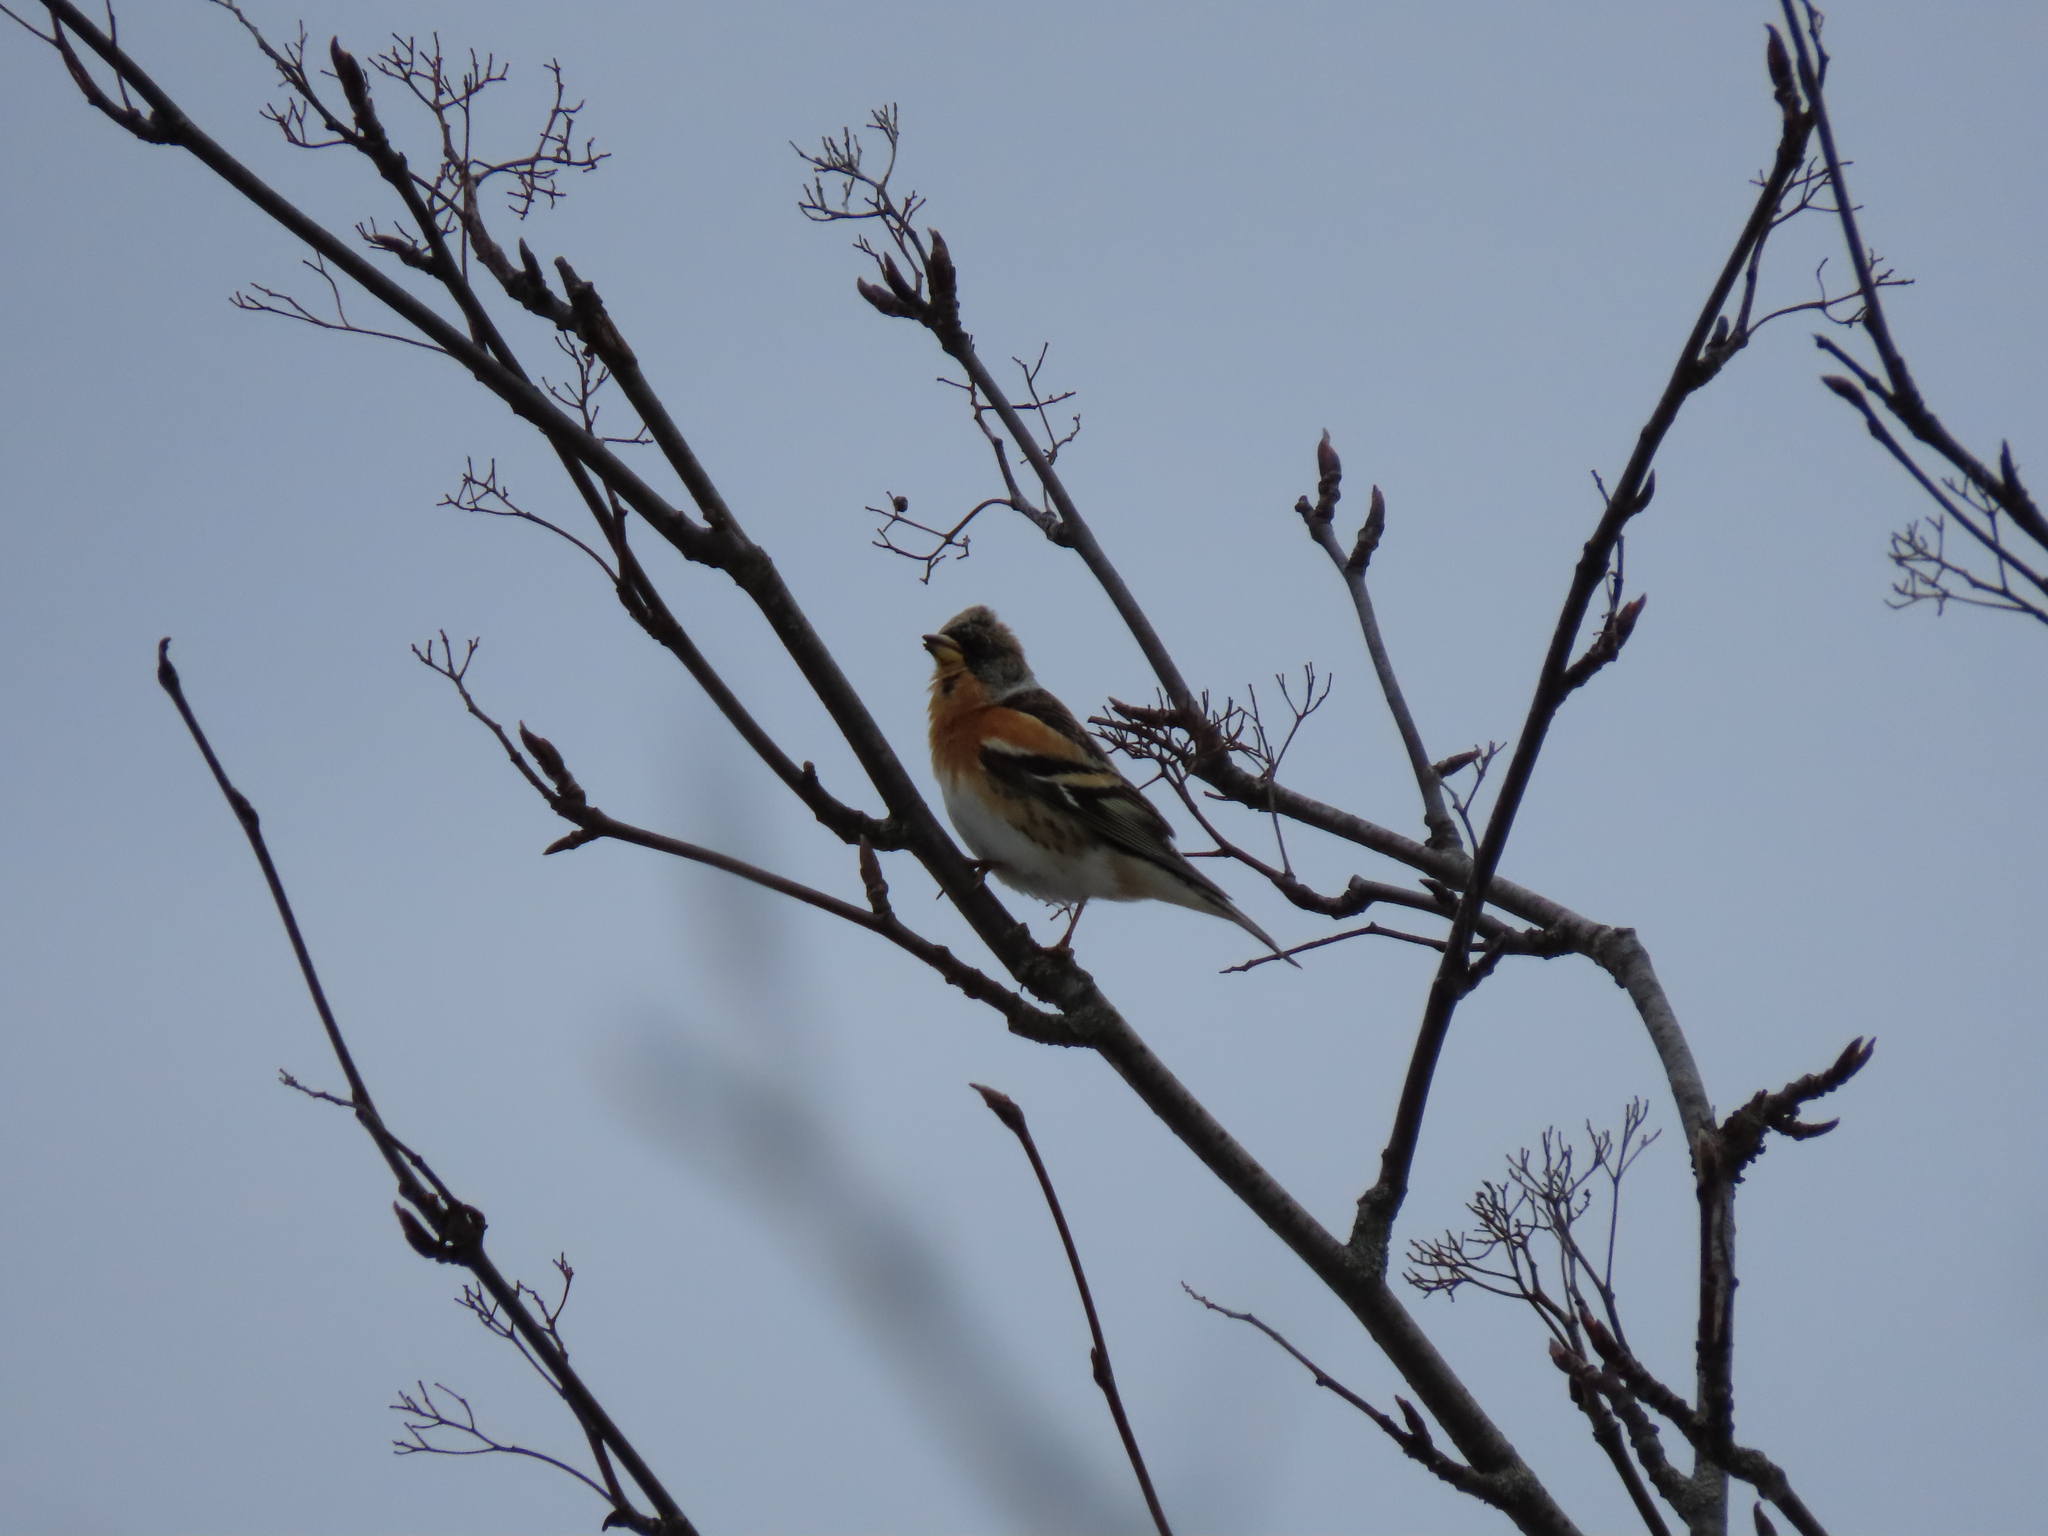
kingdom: Animalia
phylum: Chordata
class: Aves
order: Passeriformes
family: Fringillidae
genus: Fringilla
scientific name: Fringilla montifringilla
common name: Brambling
